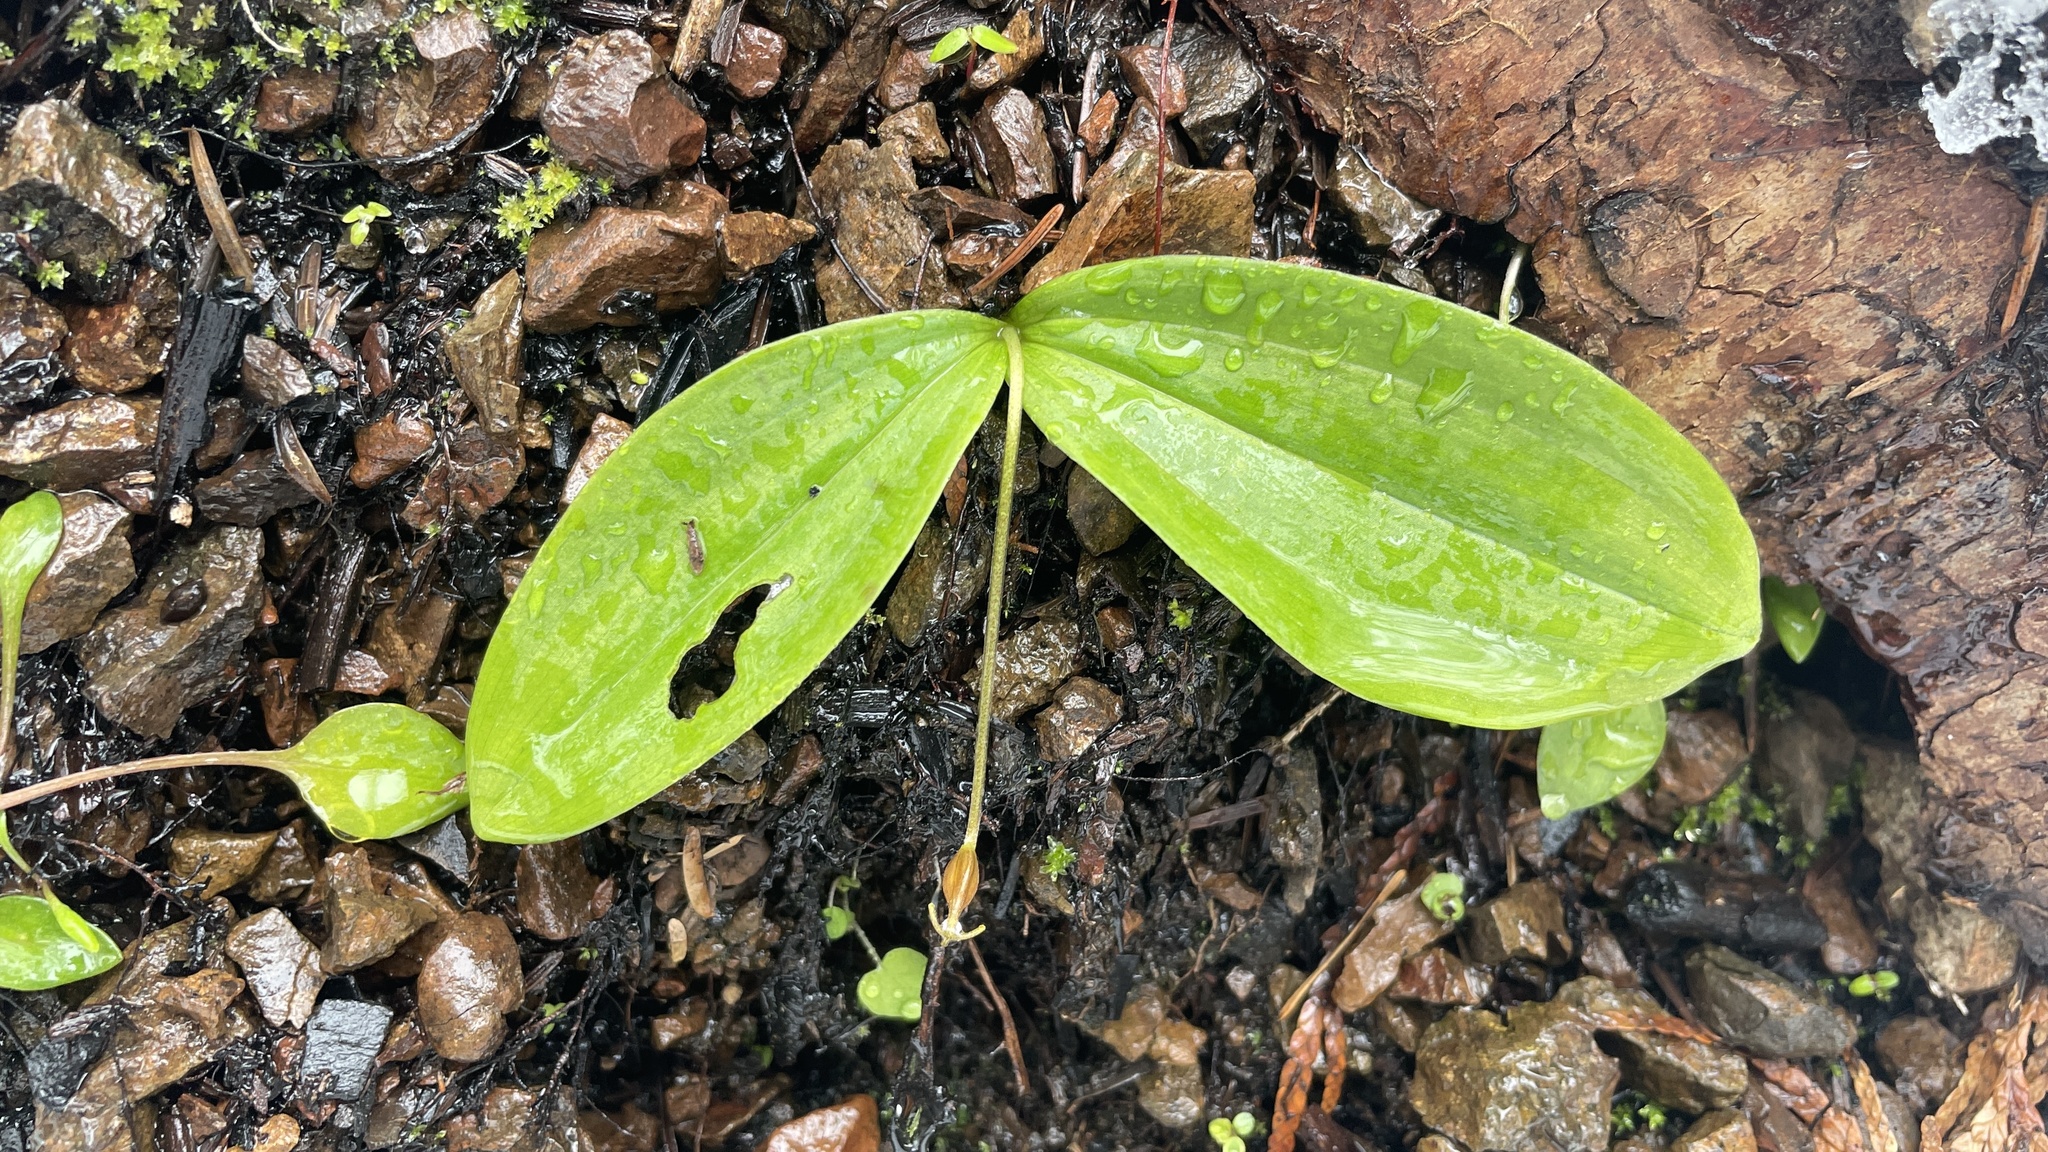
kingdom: Plantae
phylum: Tracheophyta
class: Liliopsida
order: Liliales
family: Liliaceae
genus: Clintonia
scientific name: Clintonia uniflora
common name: Queen's cup
